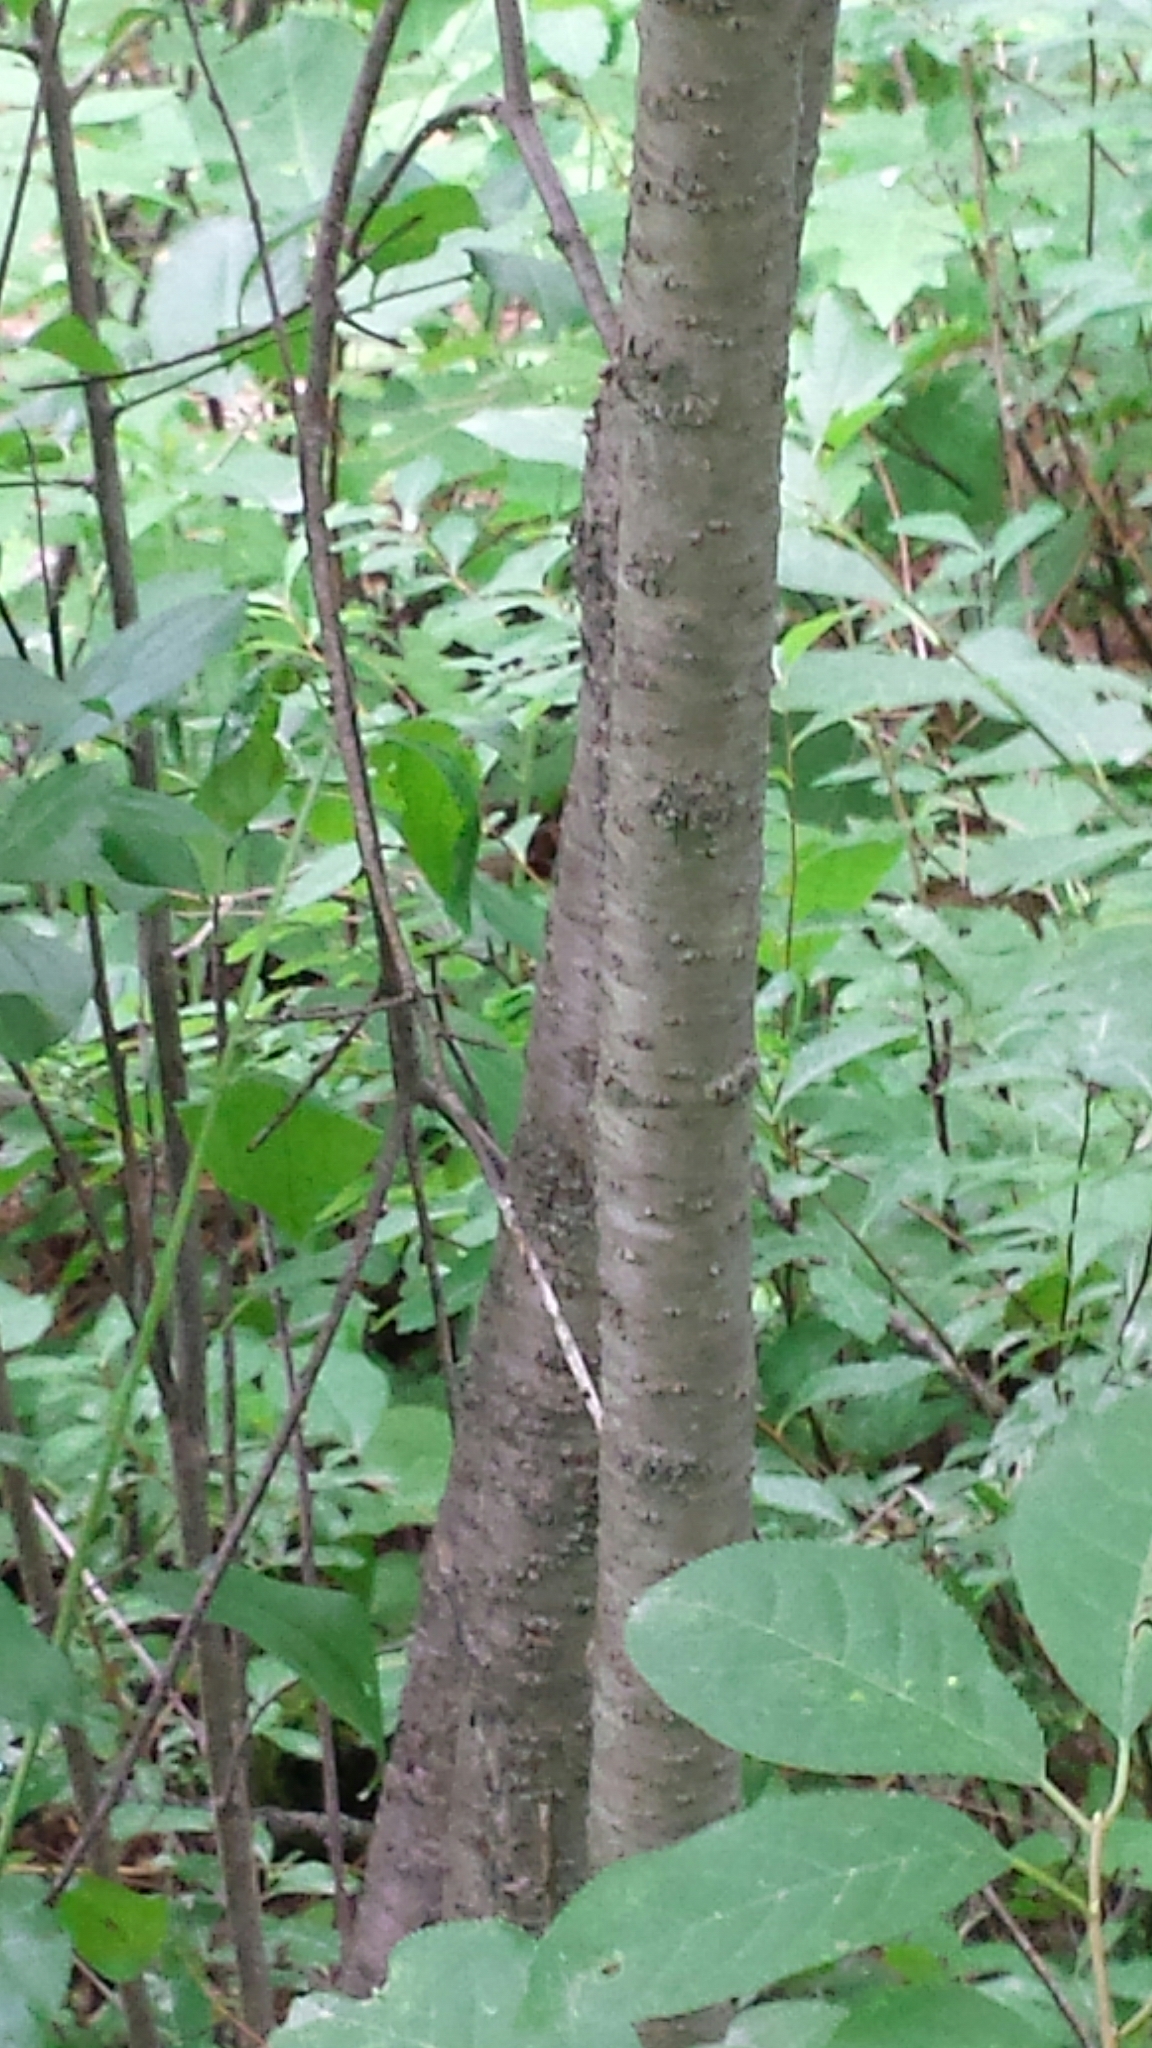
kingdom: Plantae
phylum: Tracheophyta
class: Magnoliopsida
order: Rosales
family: Rhamnaceae
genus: Rhamnus
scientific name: Rhamnus cathartica
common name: Common buckthorn
